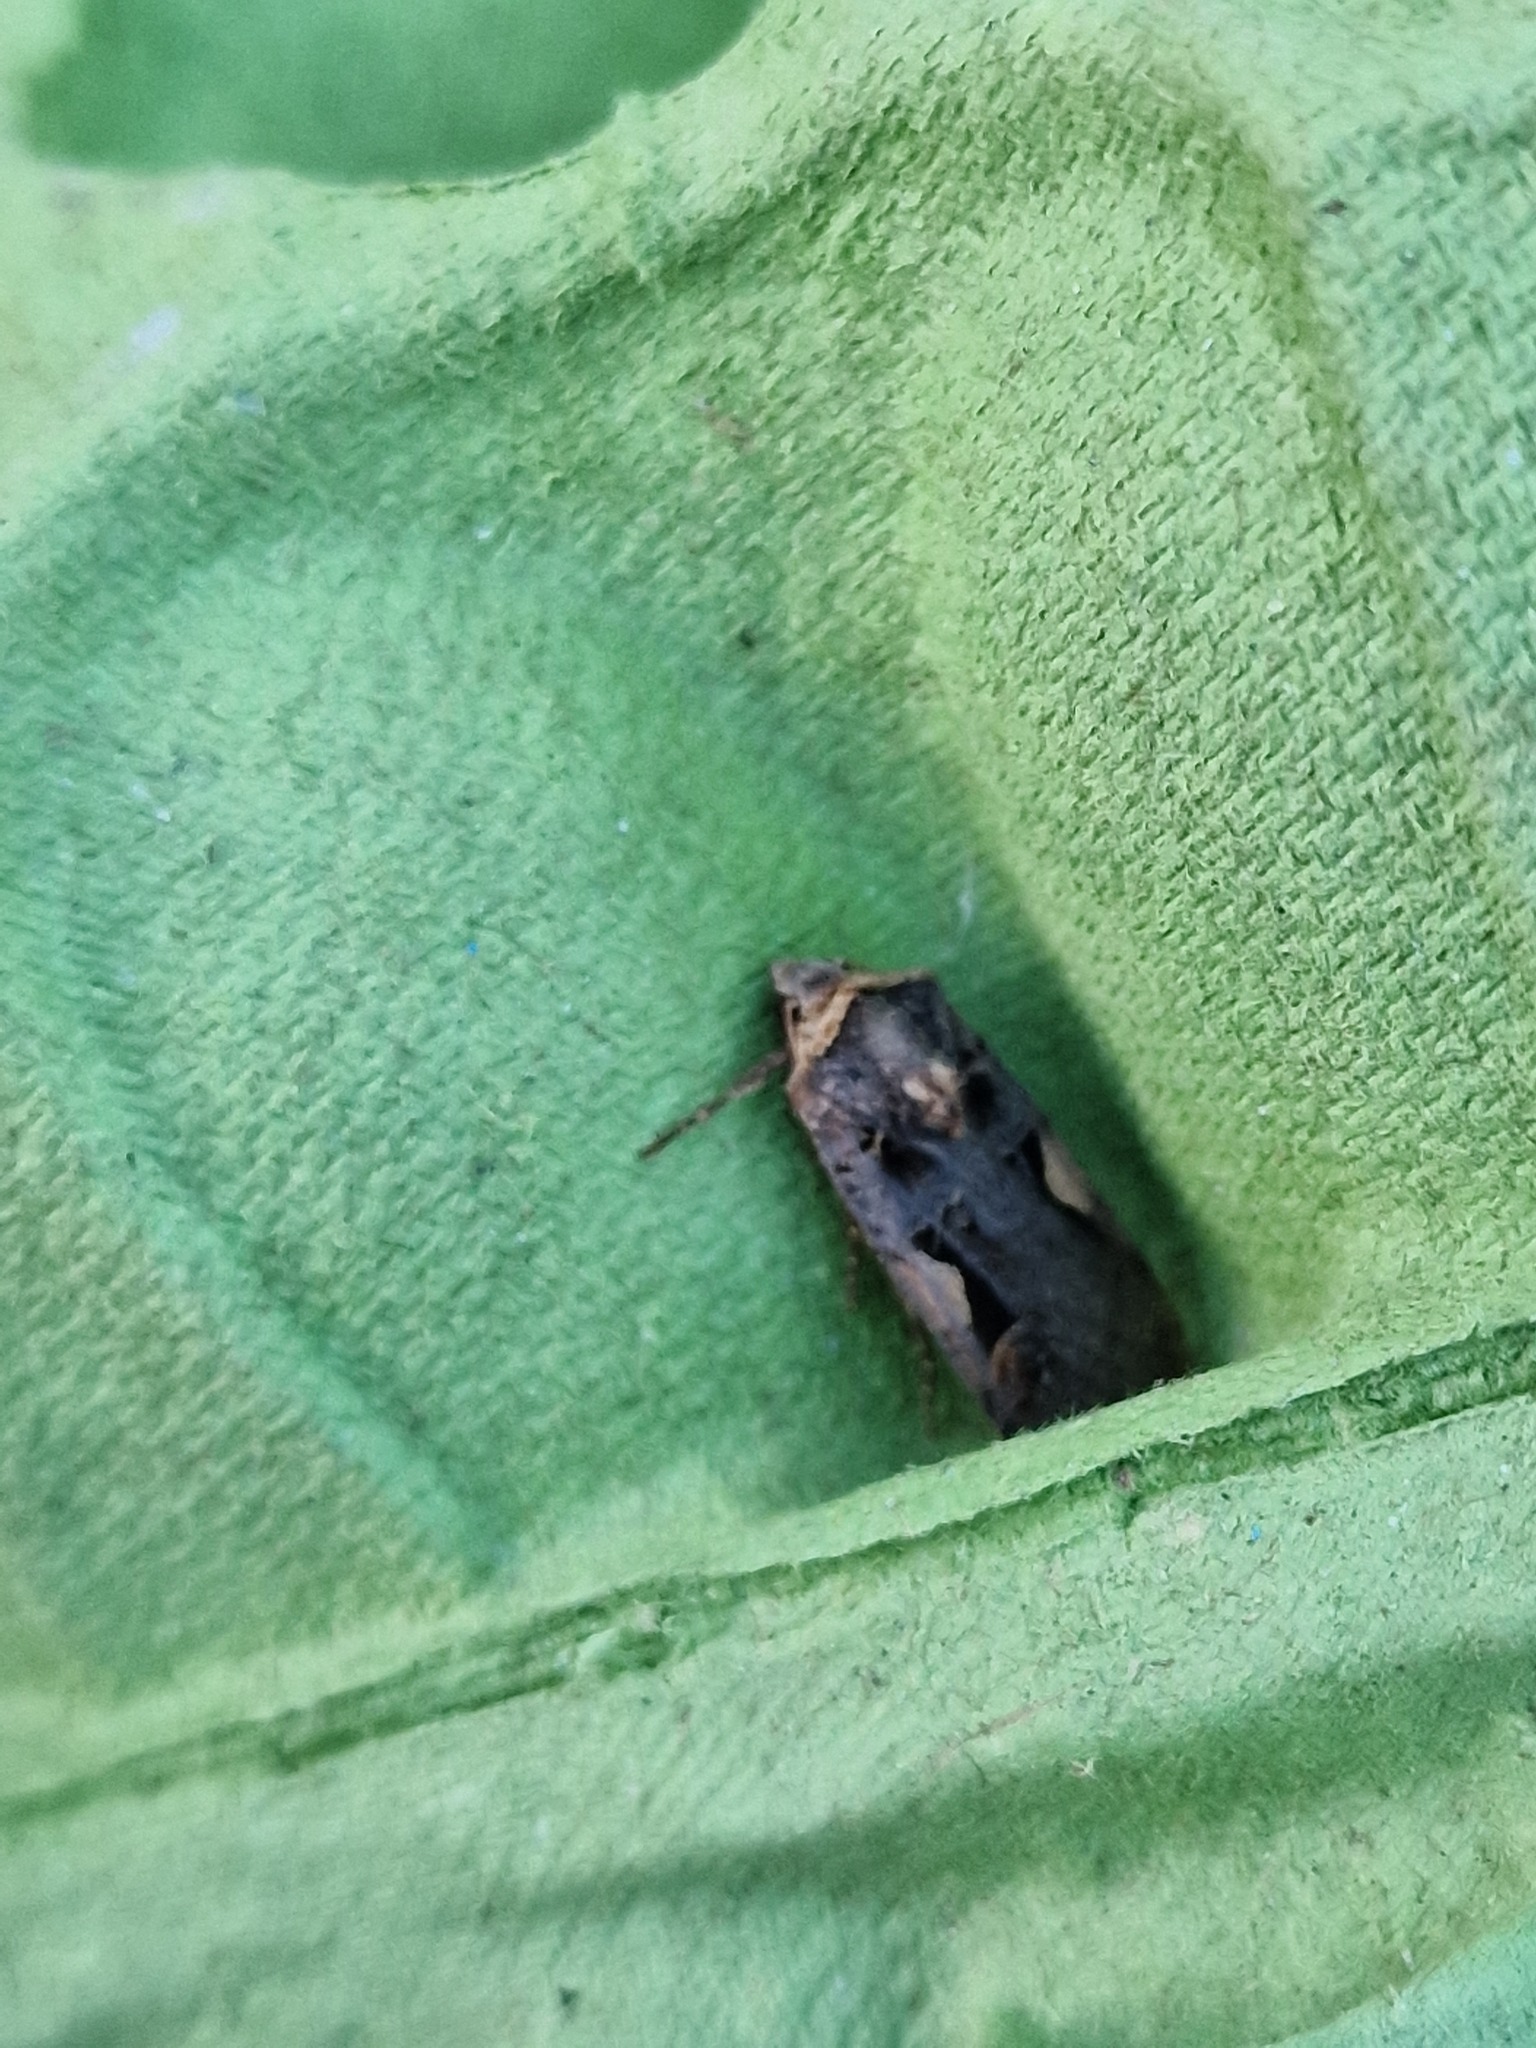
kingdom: Animalia
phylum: Arthropoda
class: Insecta
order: Lepidoptera
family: Noctuidae
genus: Xestia
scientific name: Xestia c-nigrum
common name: Setaceous hebrew character
